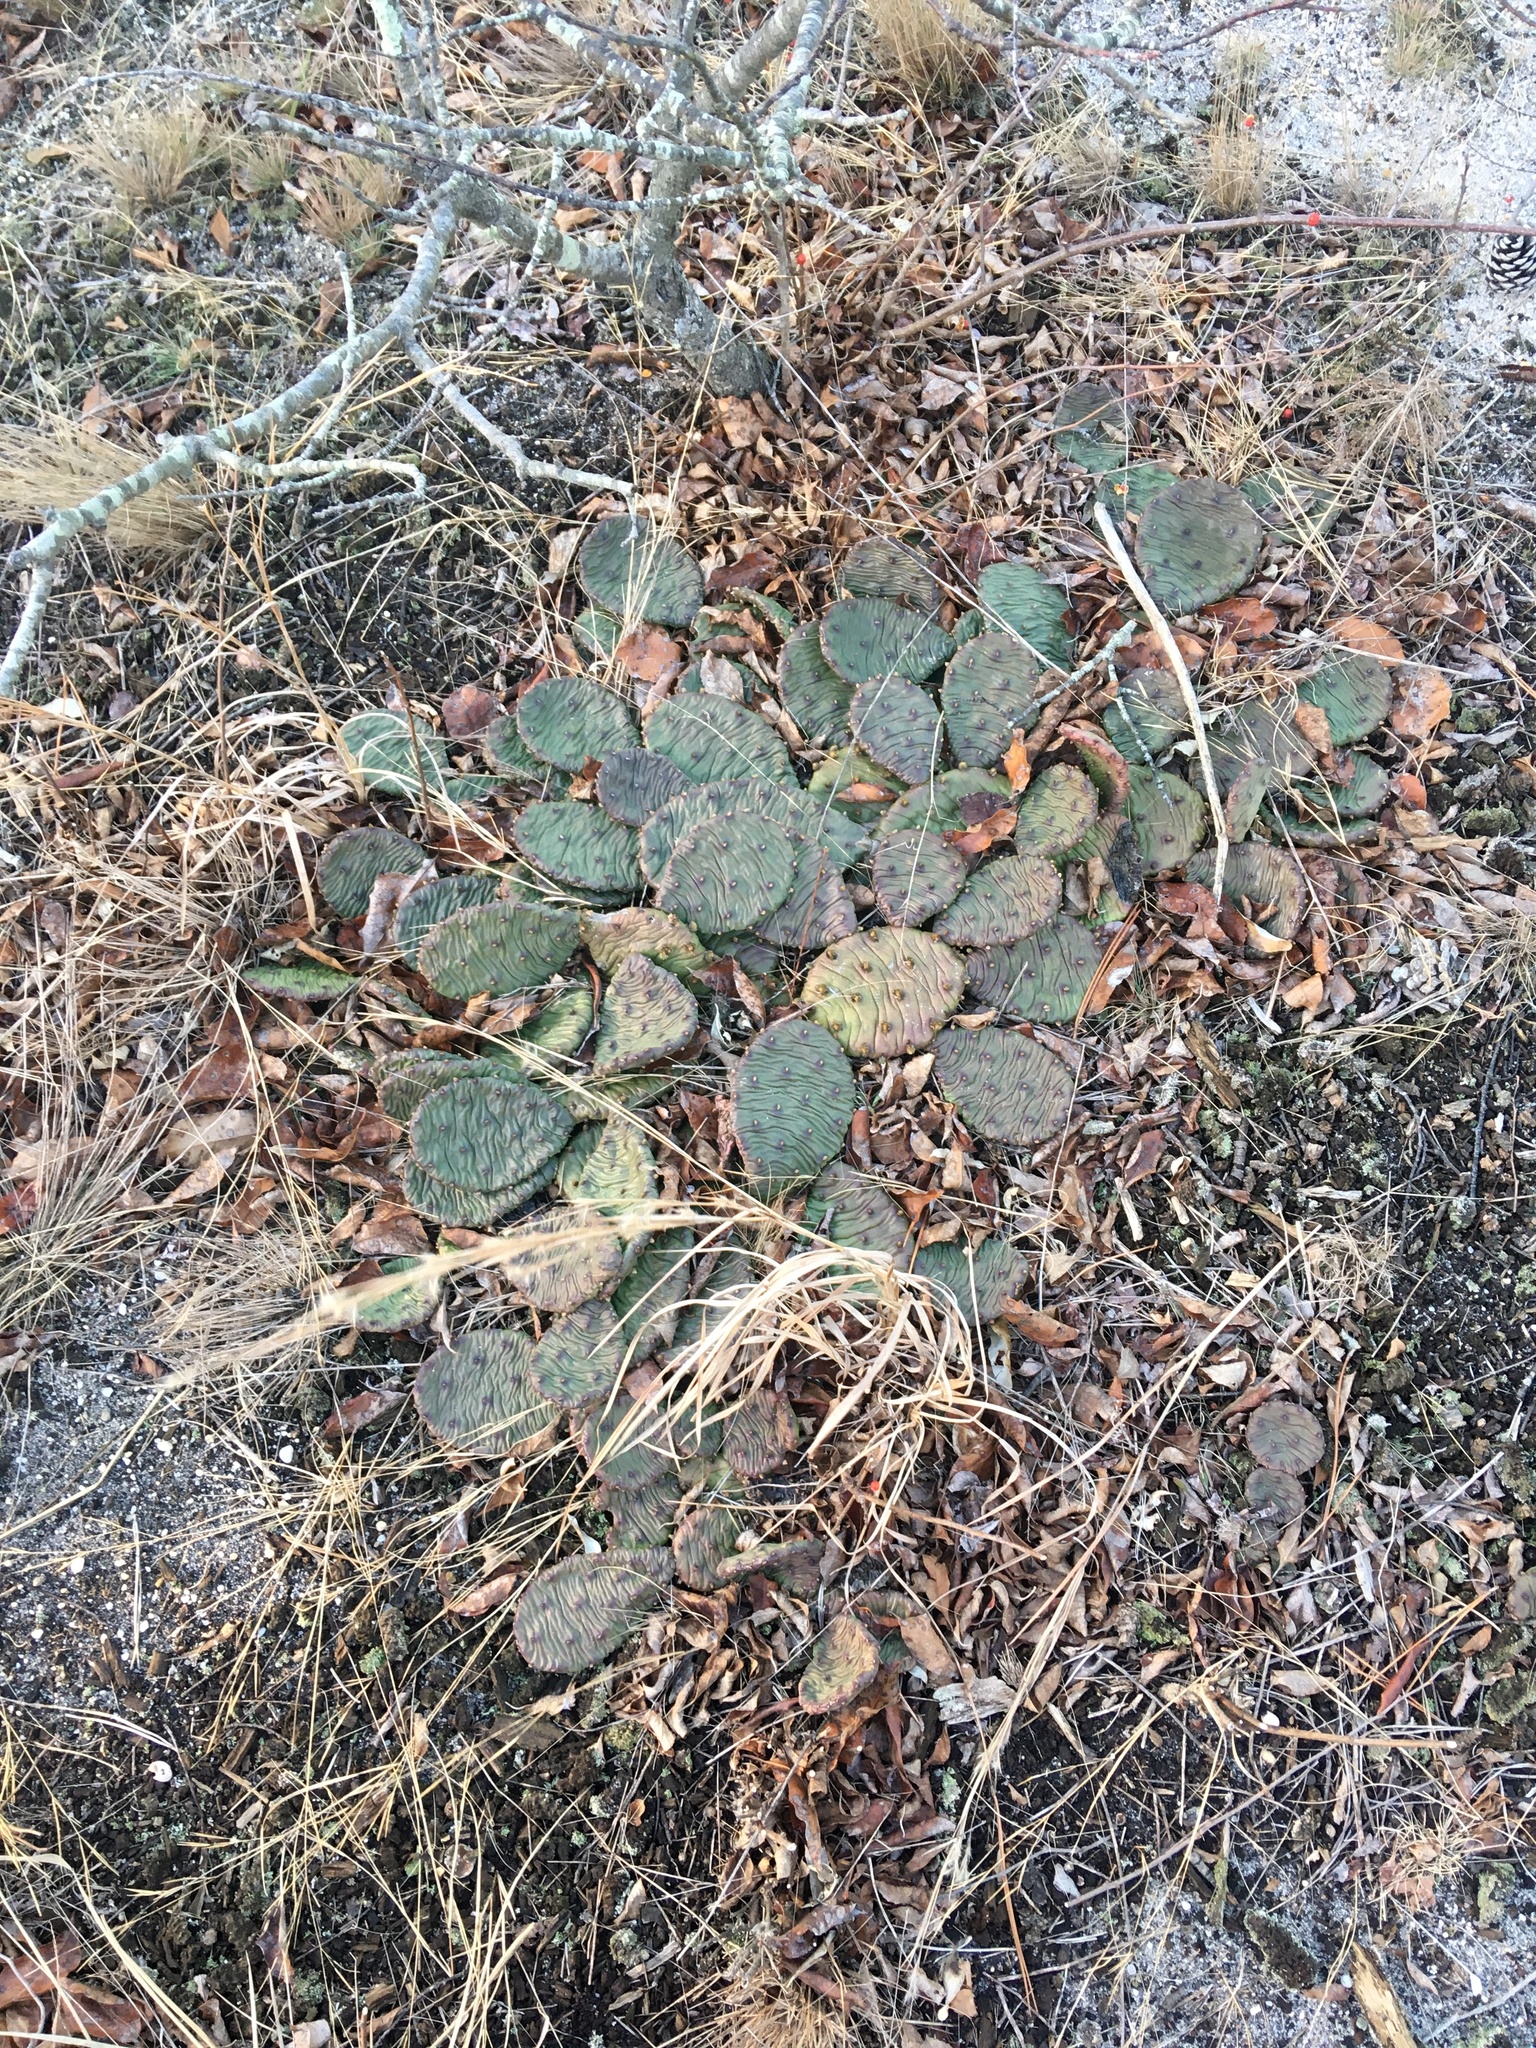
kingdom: Plantae
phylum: Tracheophyta
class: Magnoliopsida
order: Caryophyllales
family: Cactaceae
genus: Opuntia
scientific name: Opuntia humifusa
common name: Eastern prickly-pear
